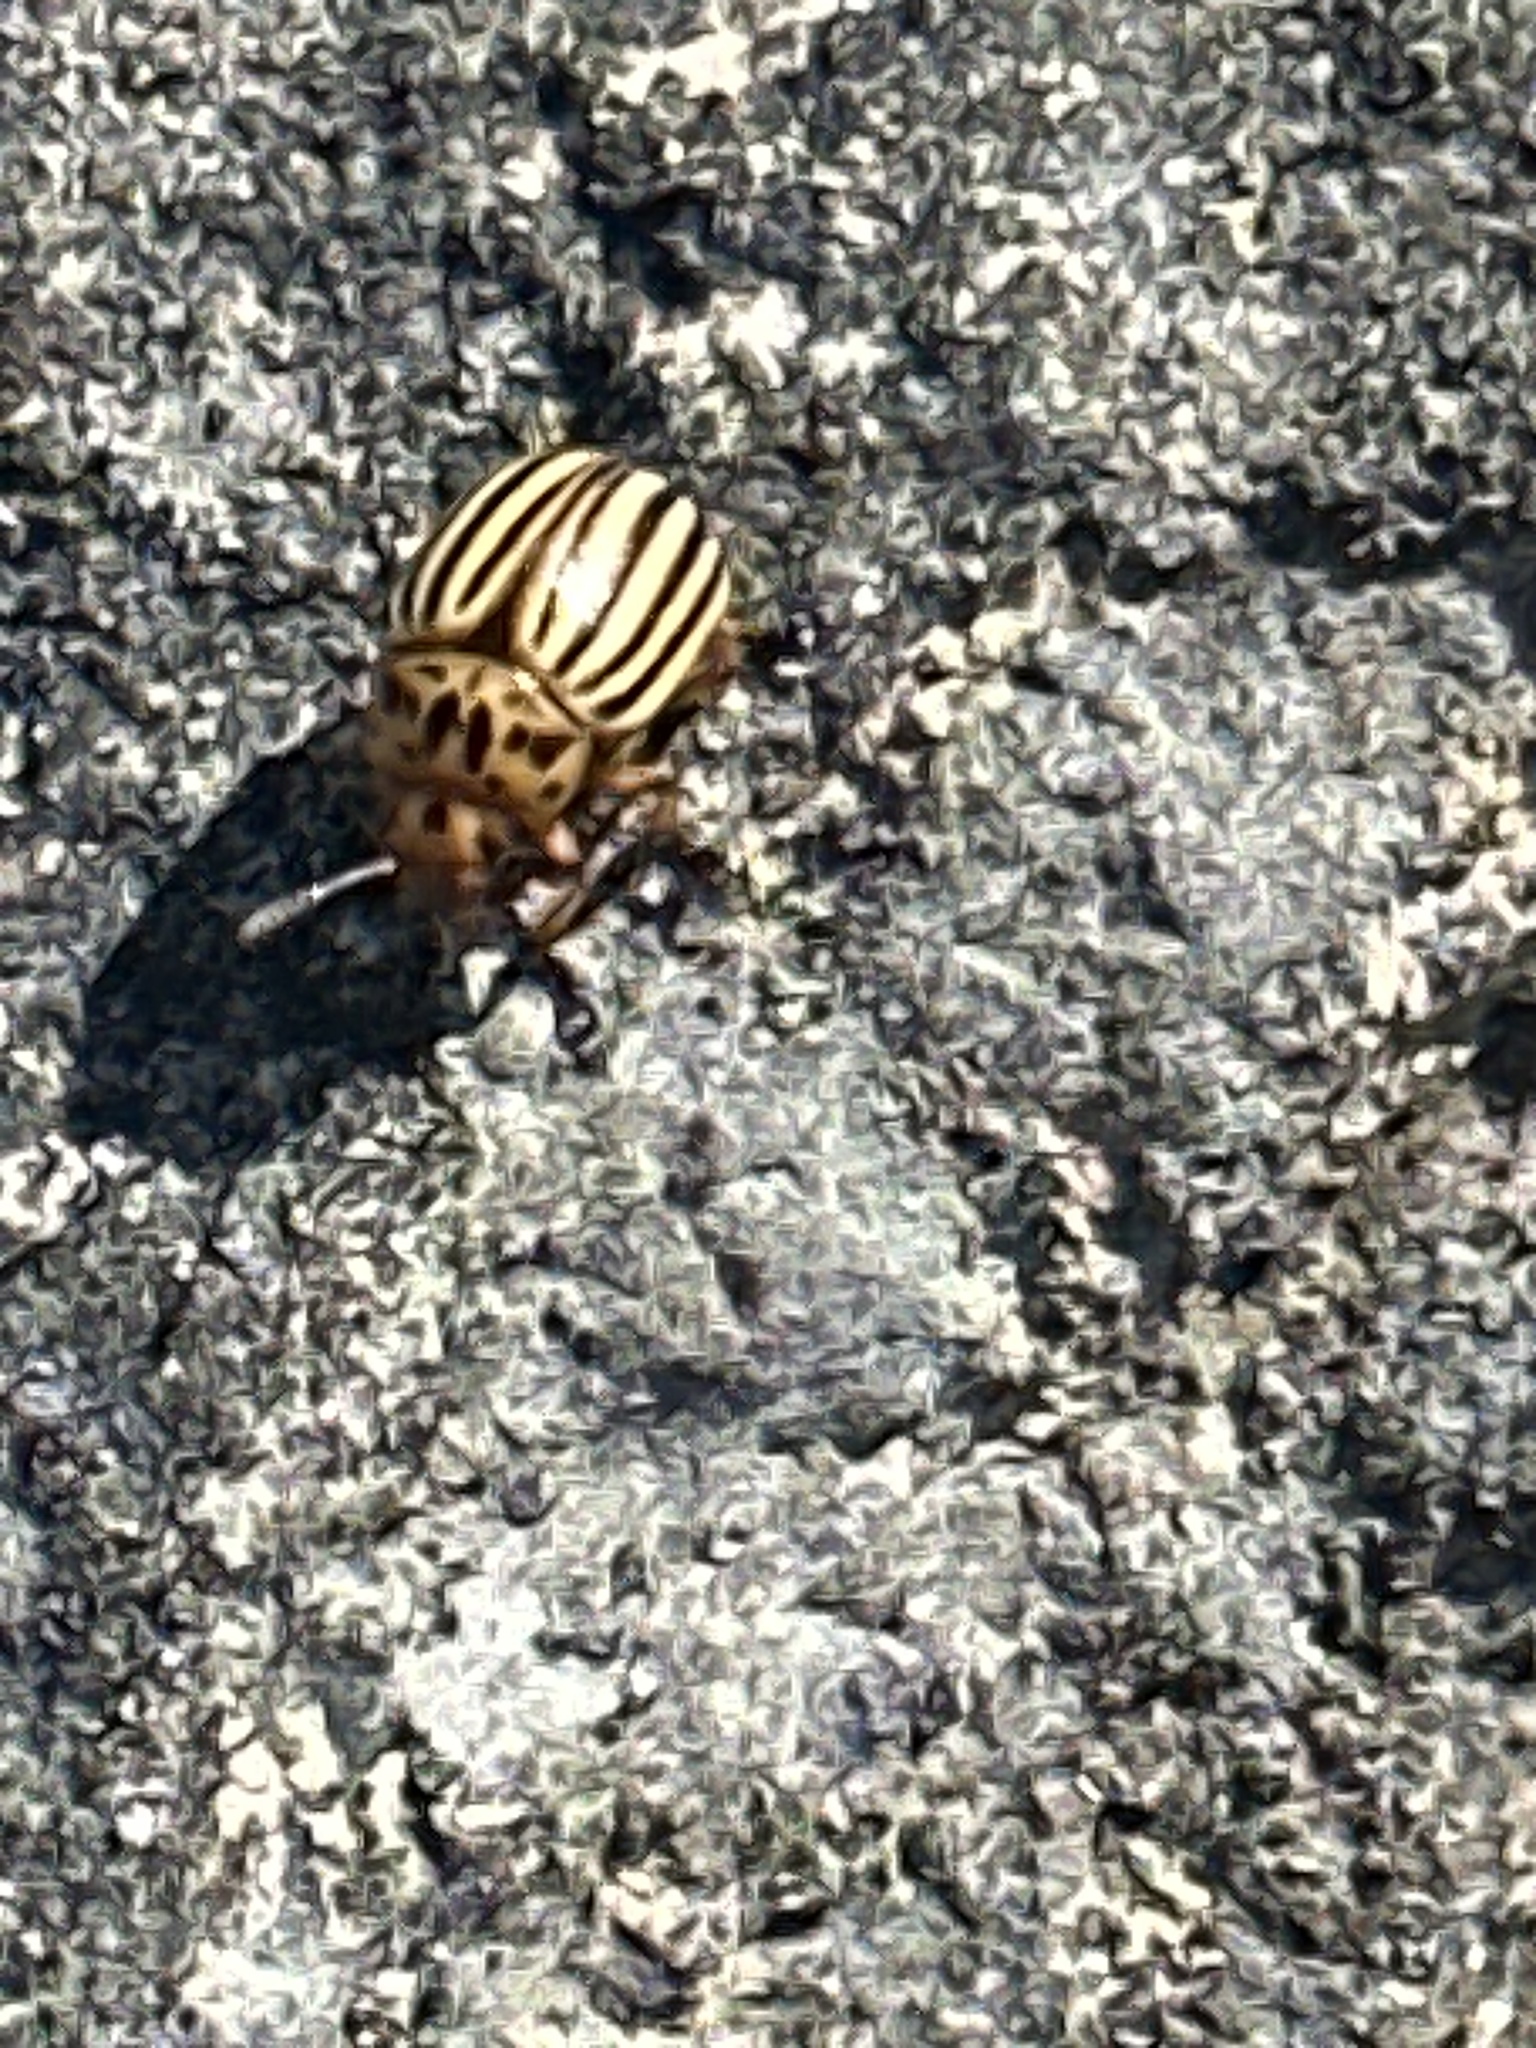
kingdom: Animalia
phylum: Arthropoda
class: Insecta
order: Coleoptera
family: Chrysomelidae
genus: Leptinotarsa
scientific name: Leptinotarsa decemlineata
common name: Colorado potato beetle
